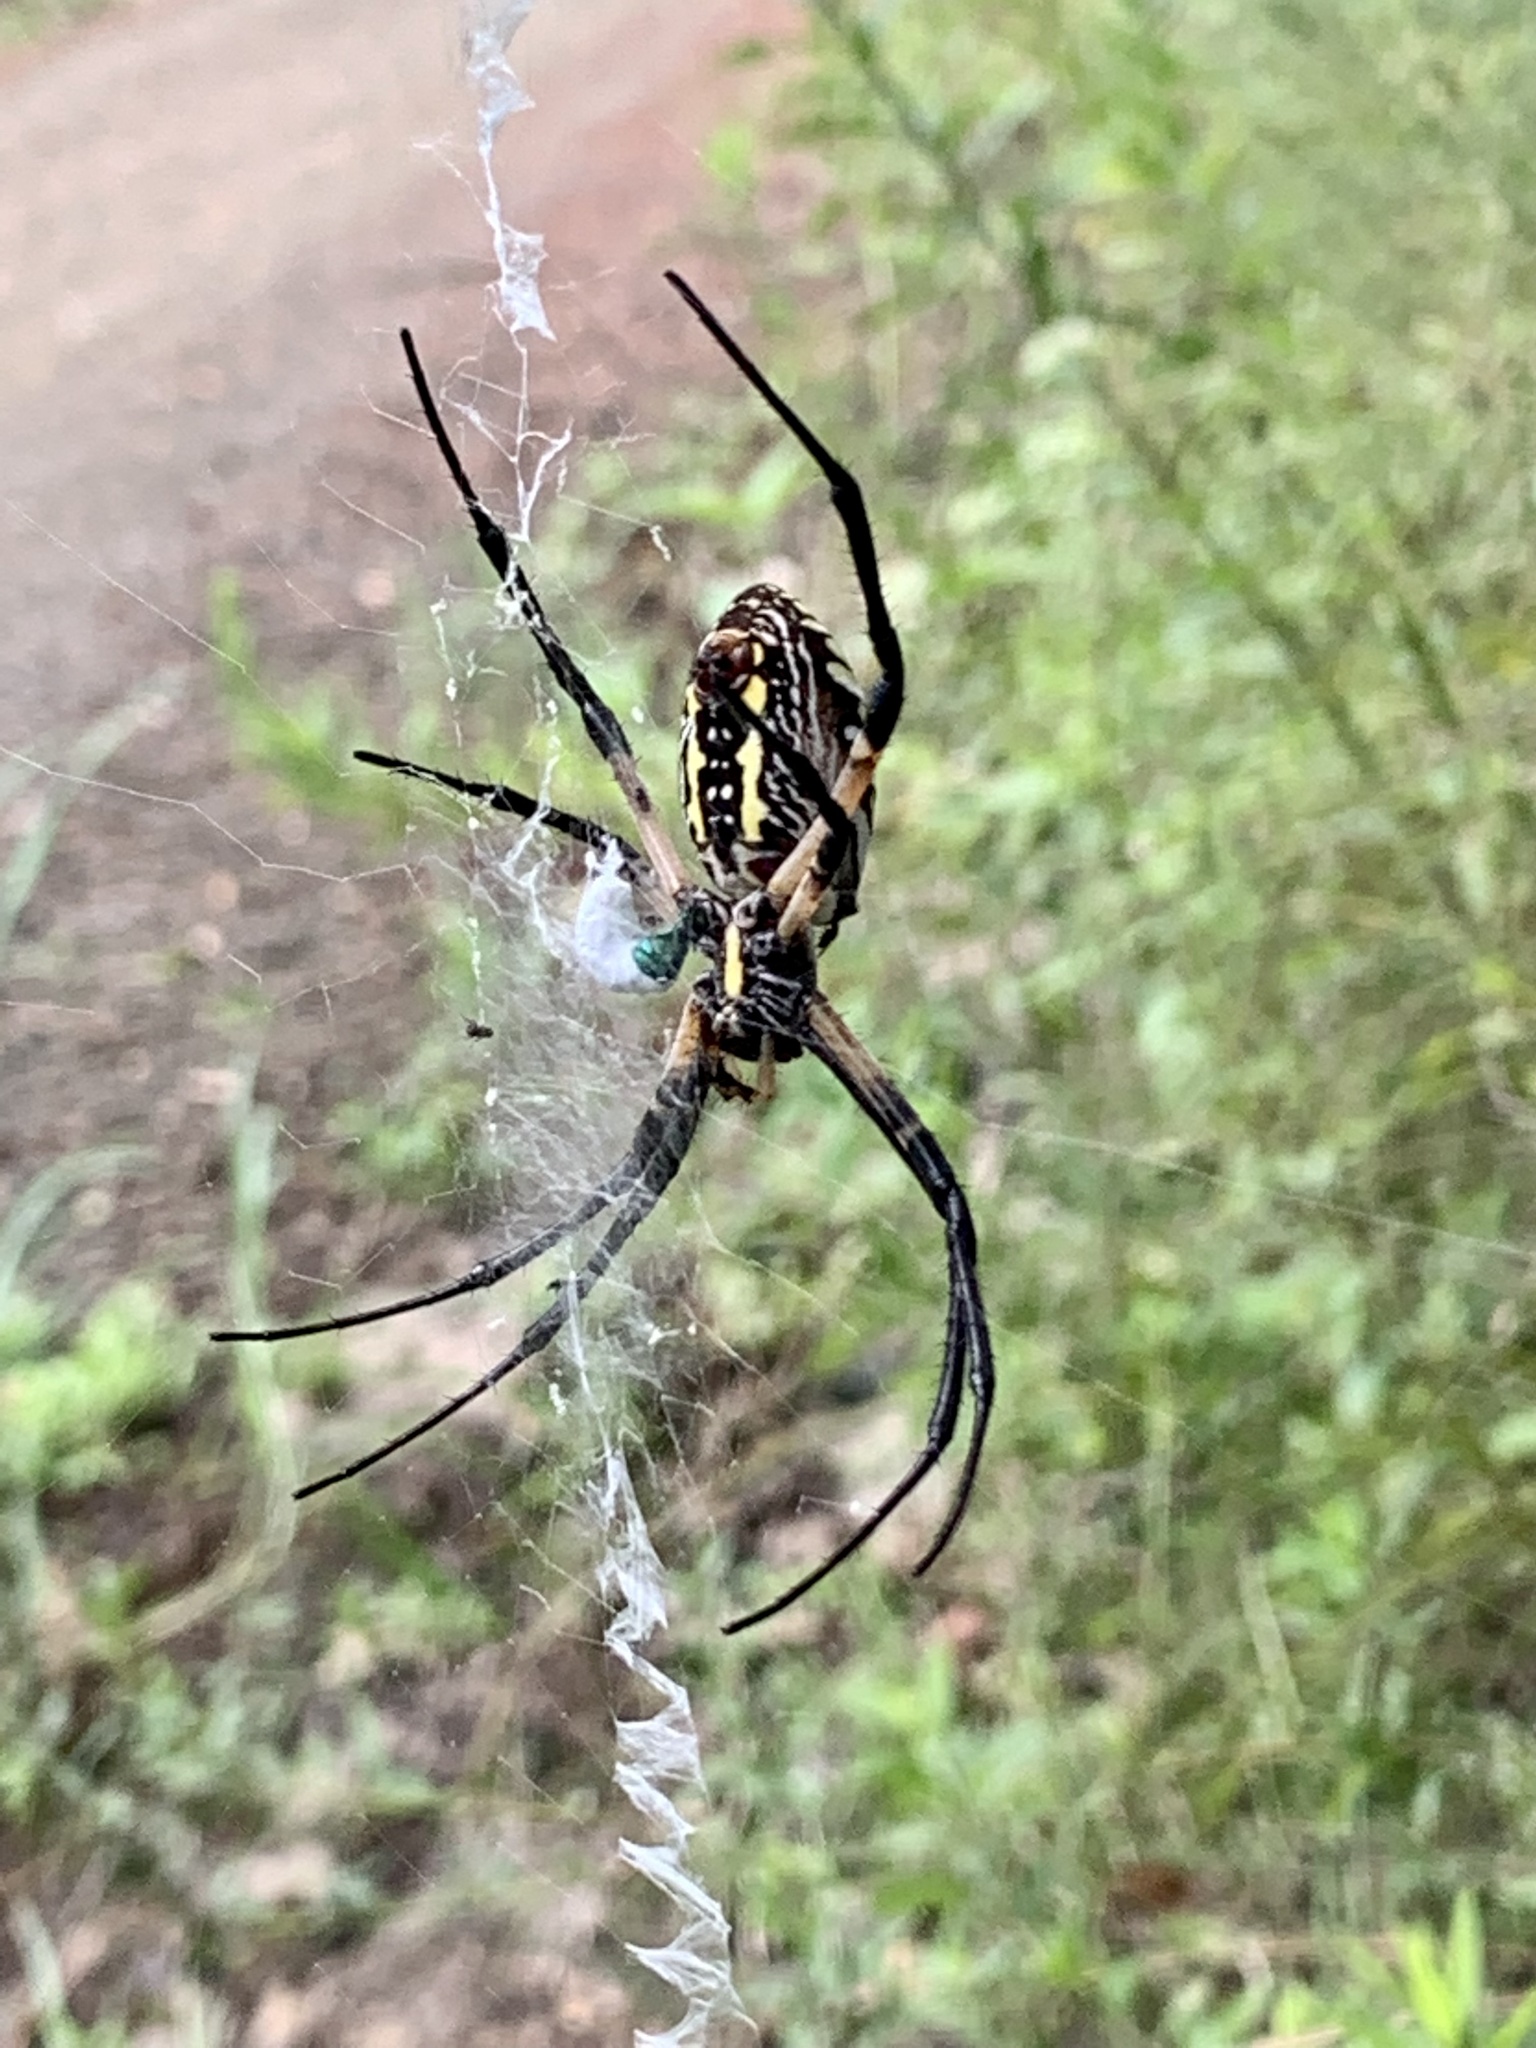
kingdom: Animalia
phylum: Arthropoda
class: Arachnida
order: Araneae
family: Araneidae
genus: Argiope
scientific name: Argiope aurantia
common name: Orb weavers
